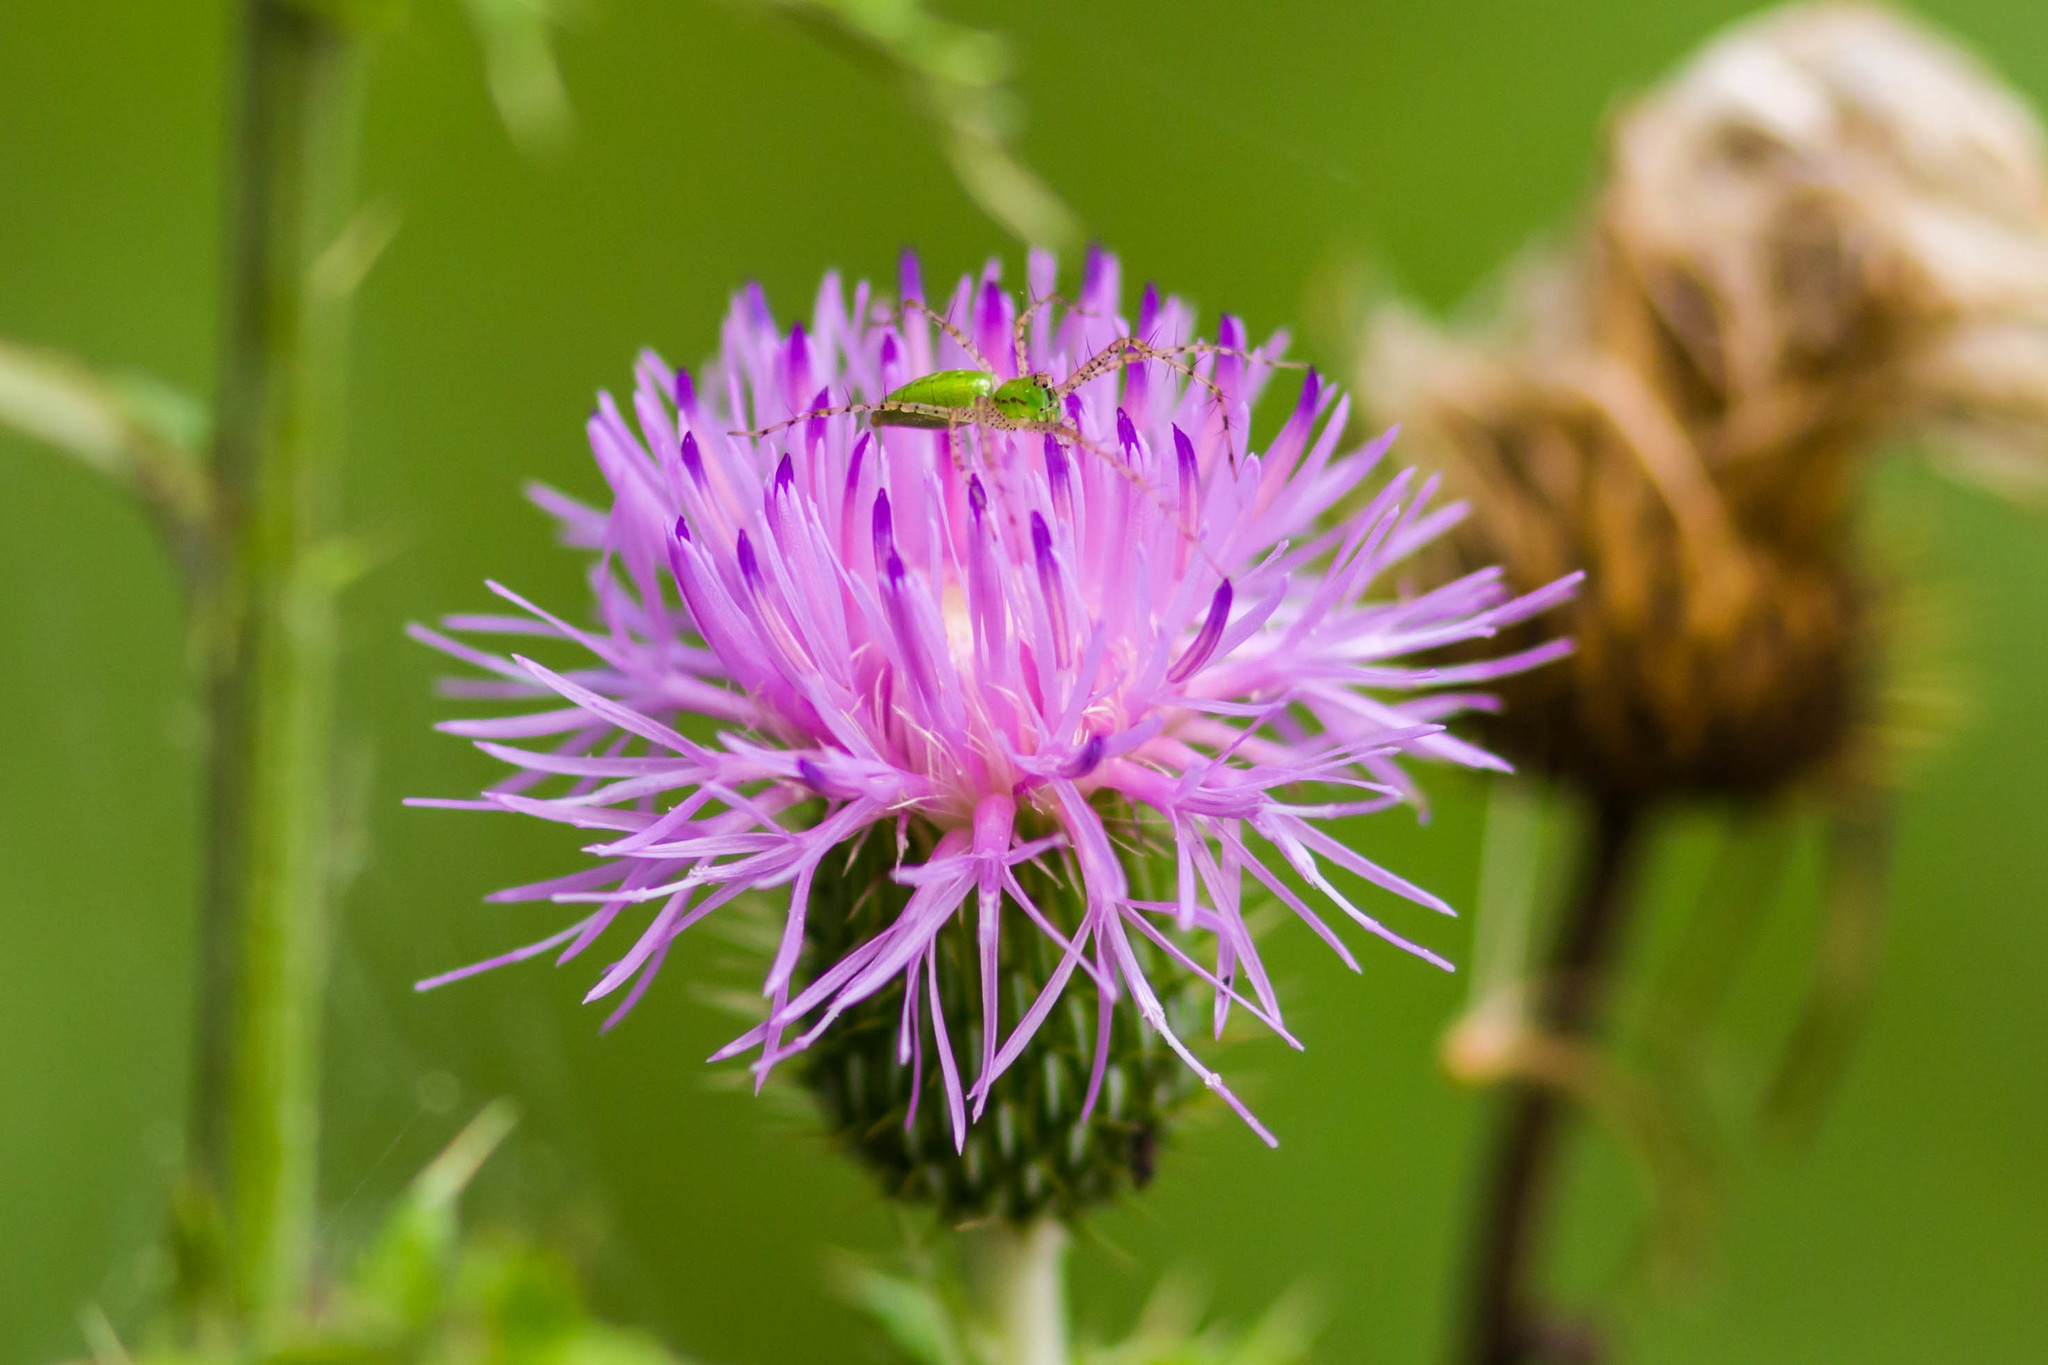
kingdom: Animalia
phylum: Arthropoda
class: Arachnida
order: Araneae
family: Oxyopidae
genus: Peucetia
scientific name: Peucetia viridans
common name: Lynx spiders
